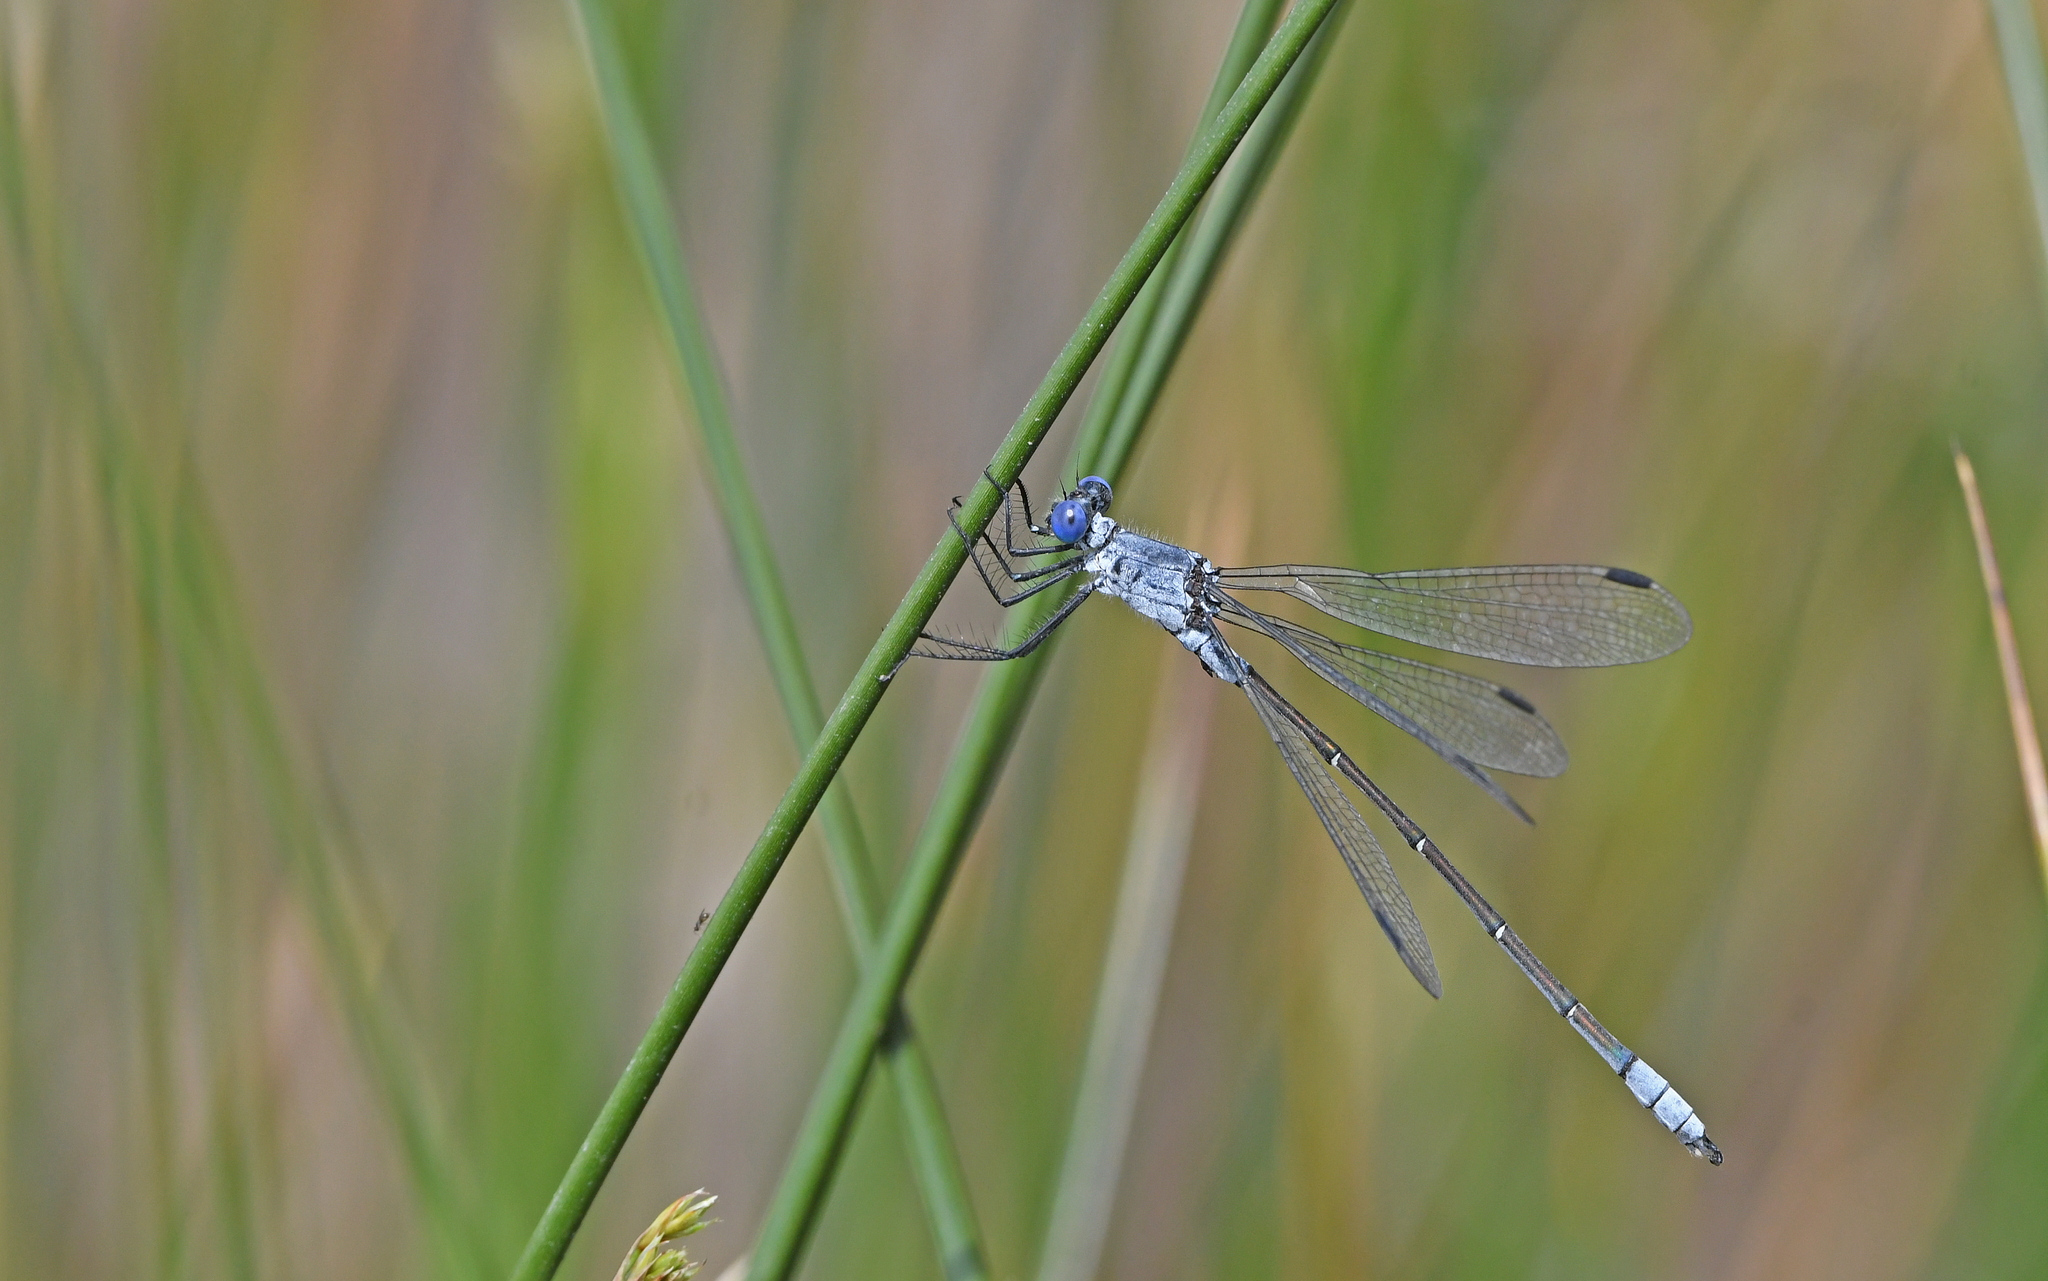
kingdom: Animalia
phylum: Arthropoda
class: Insecta
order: Odonata
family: Lestidae
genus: Lestes
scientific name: Lestes macrostigma
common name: Dark spreadwing
